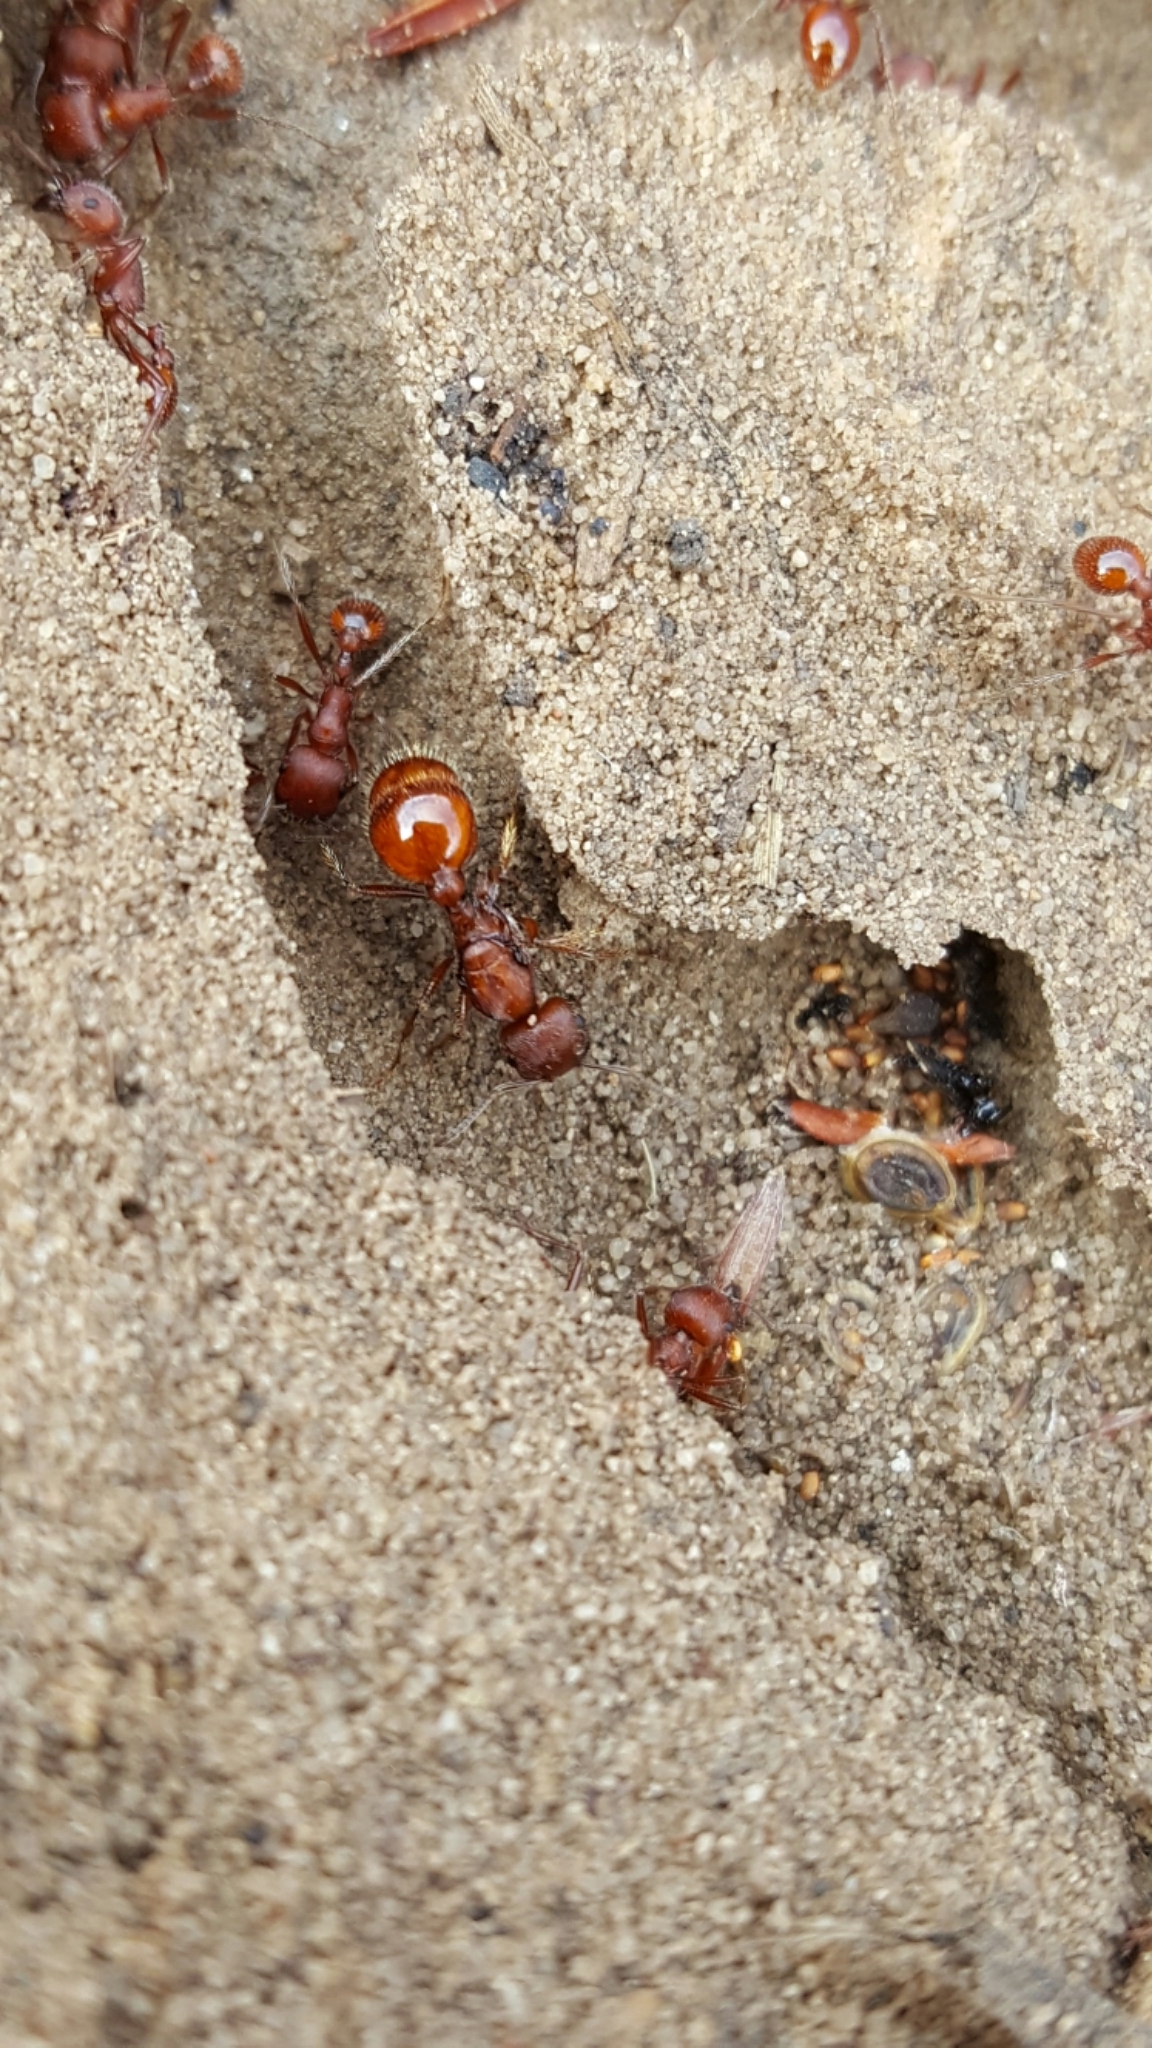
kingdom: Animalia
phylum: Arthropoda
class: Insecta
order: Hymenoptera
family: Formicidae
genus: Pogonomyrmex
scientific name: Pogonomyrmex occidentalis
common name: Western harvester ant
